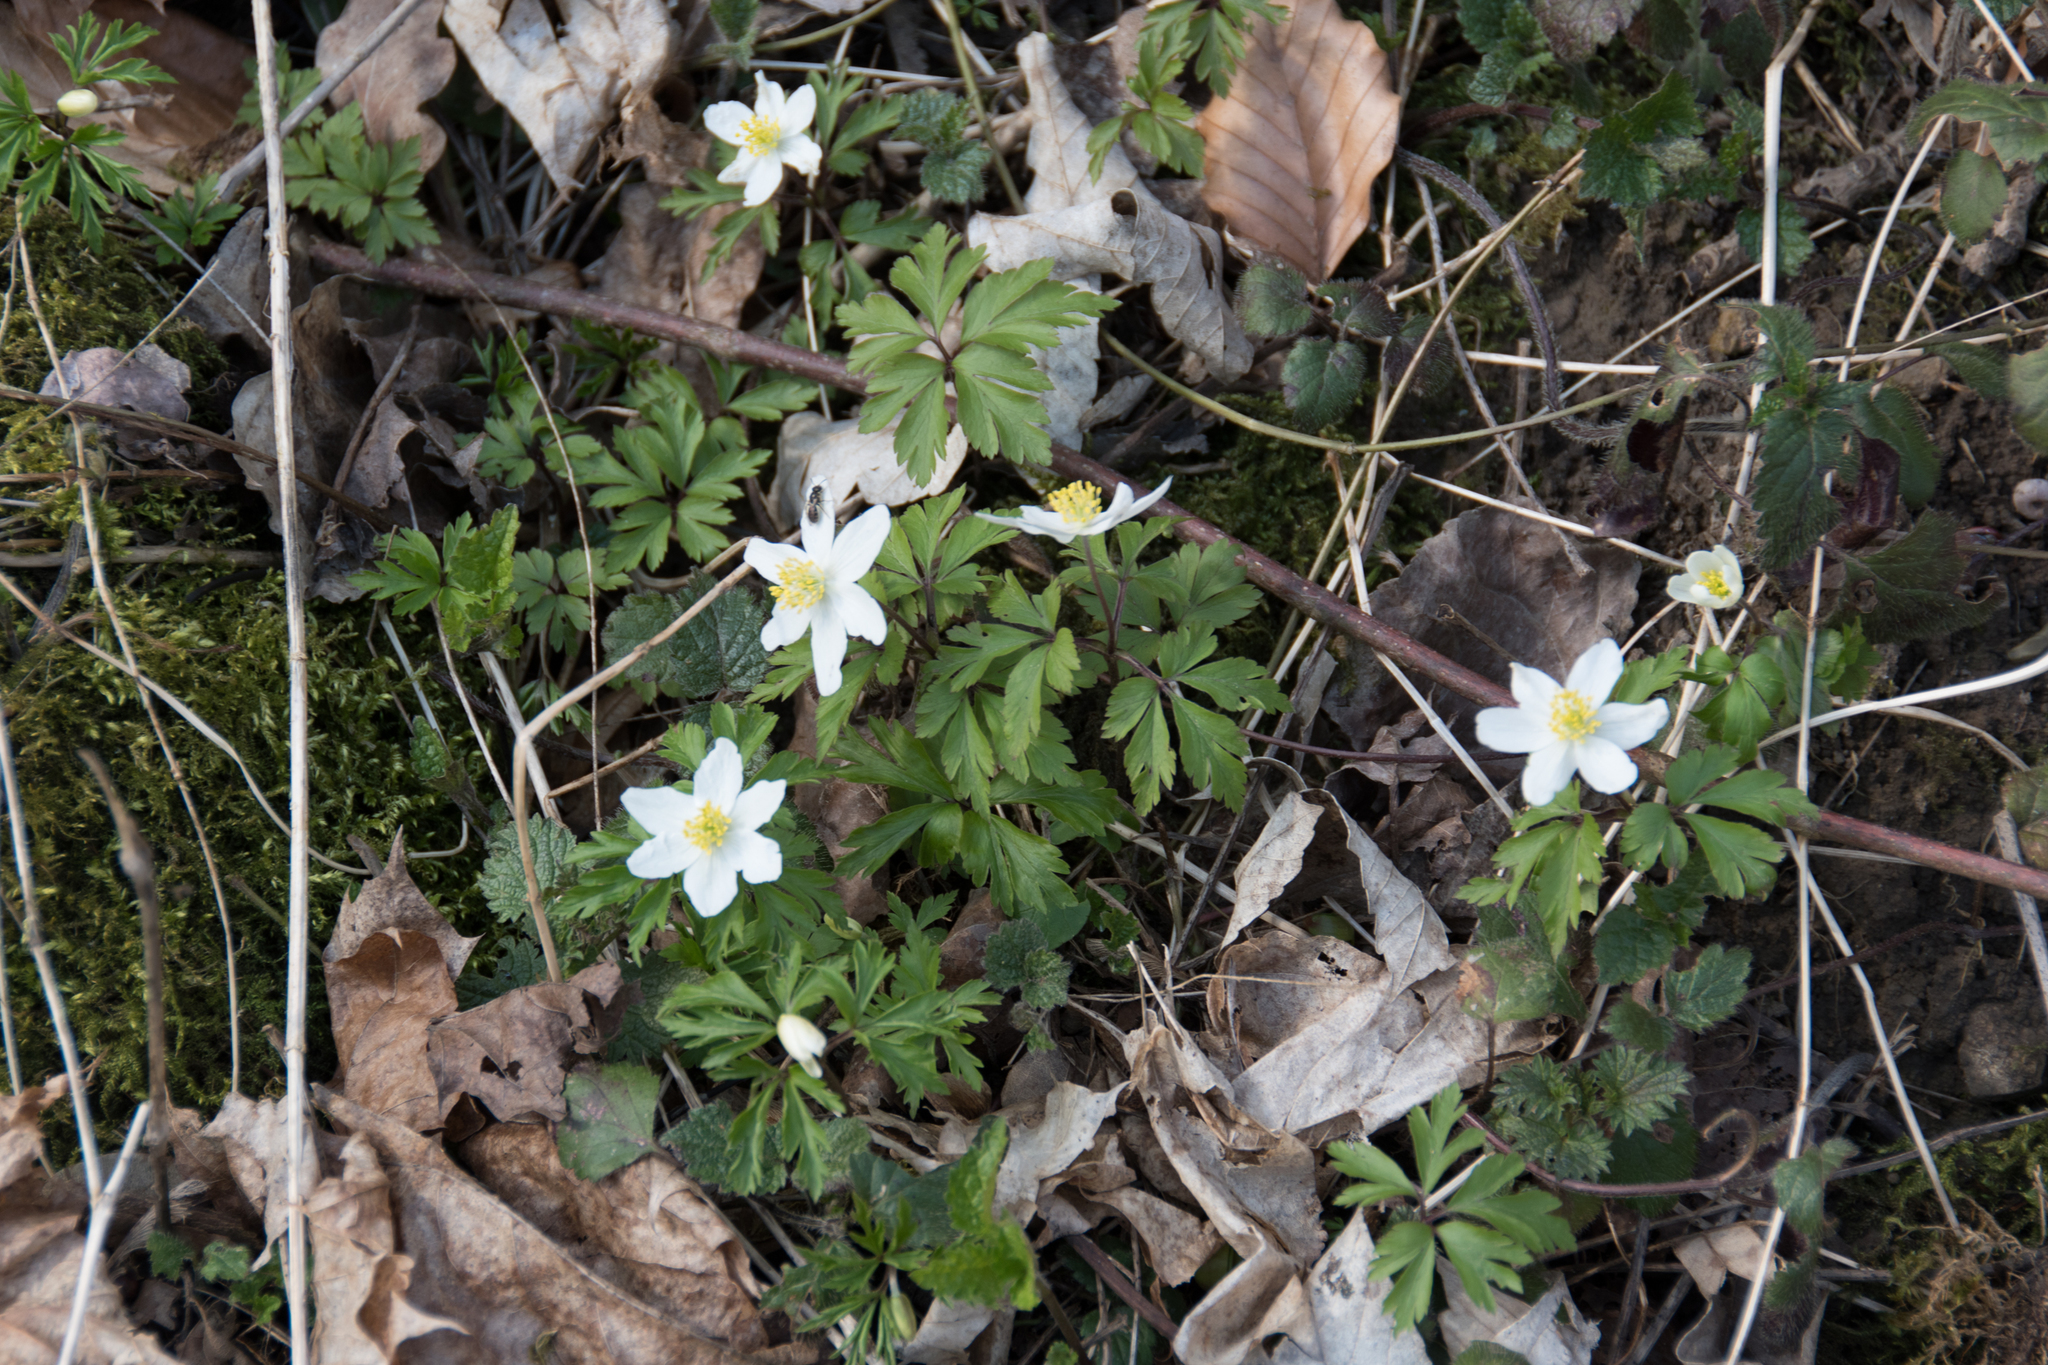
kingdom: Plantae
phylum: Tracheophyta
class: Magnoliopsida
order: Ranunculales
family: Ranunculaceae
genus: Anemone
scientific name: Anemone nemorosa
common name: Wood anemone
